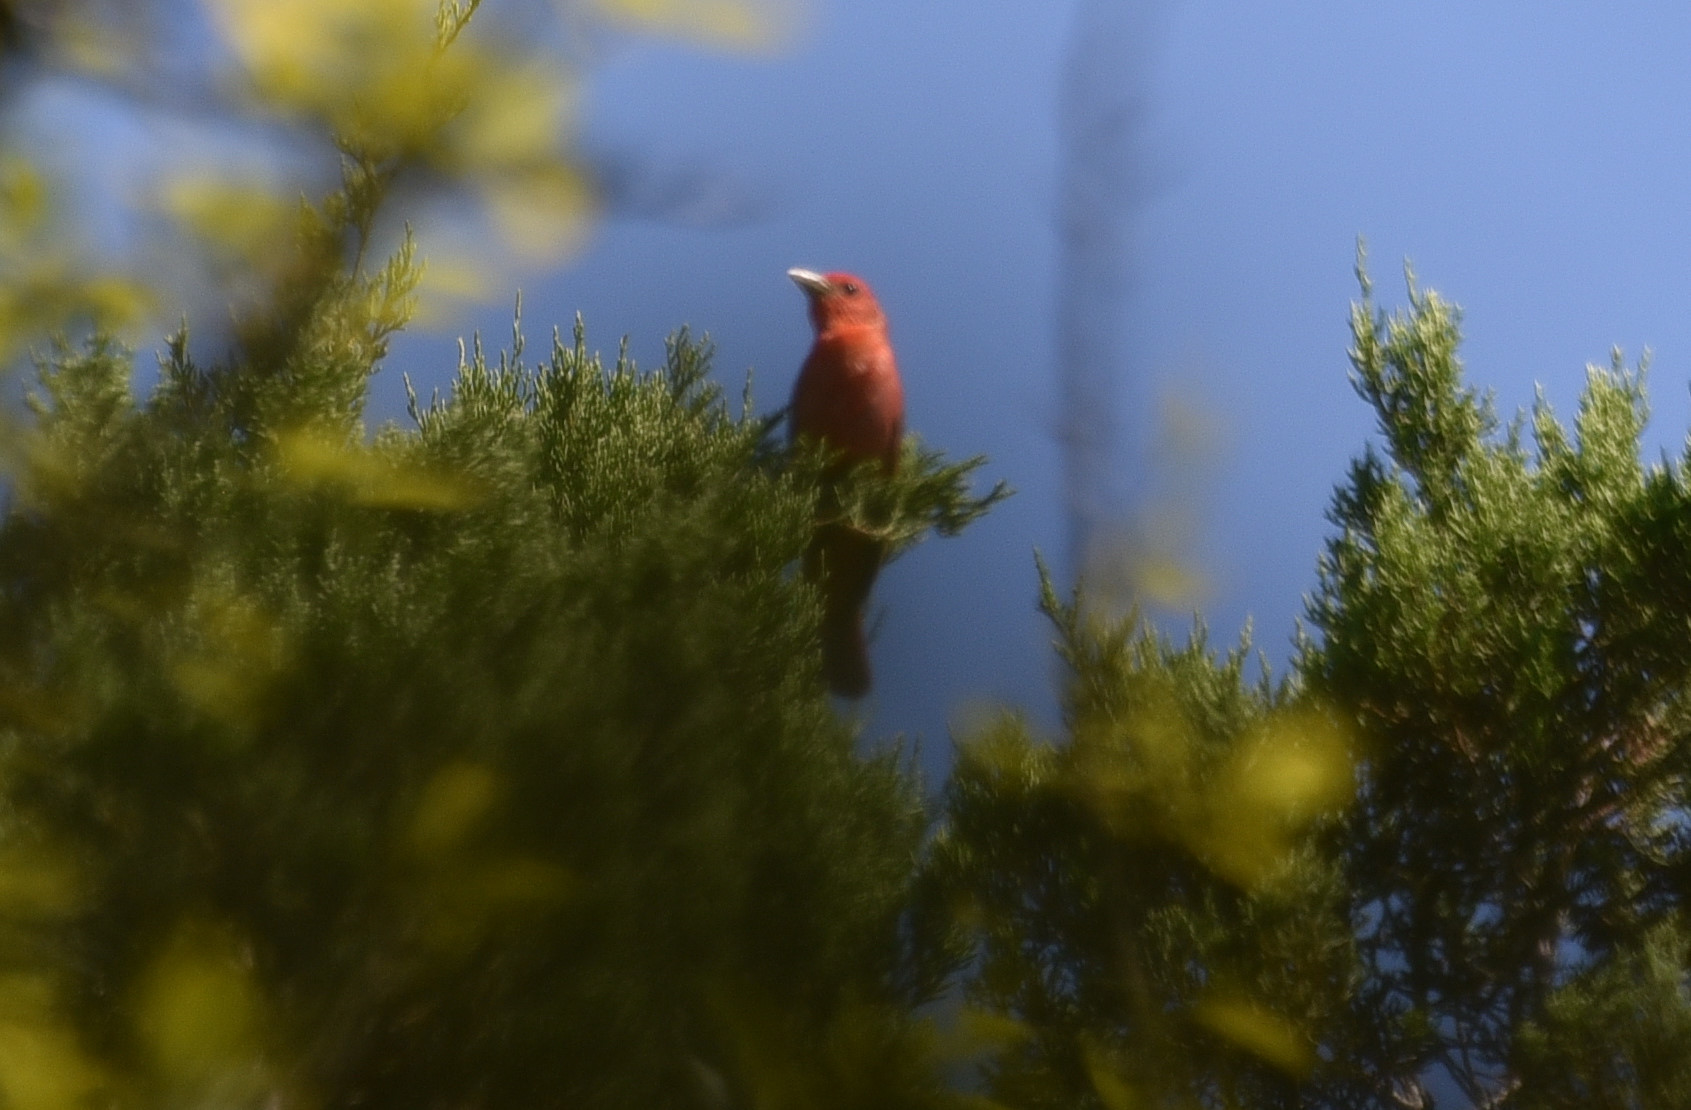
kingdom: Animalia
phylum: Chordata
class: Aves
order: Passeriformes
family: Cardinalidae
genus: Piranga
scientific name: Piranga rubra
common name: Summer tanager
